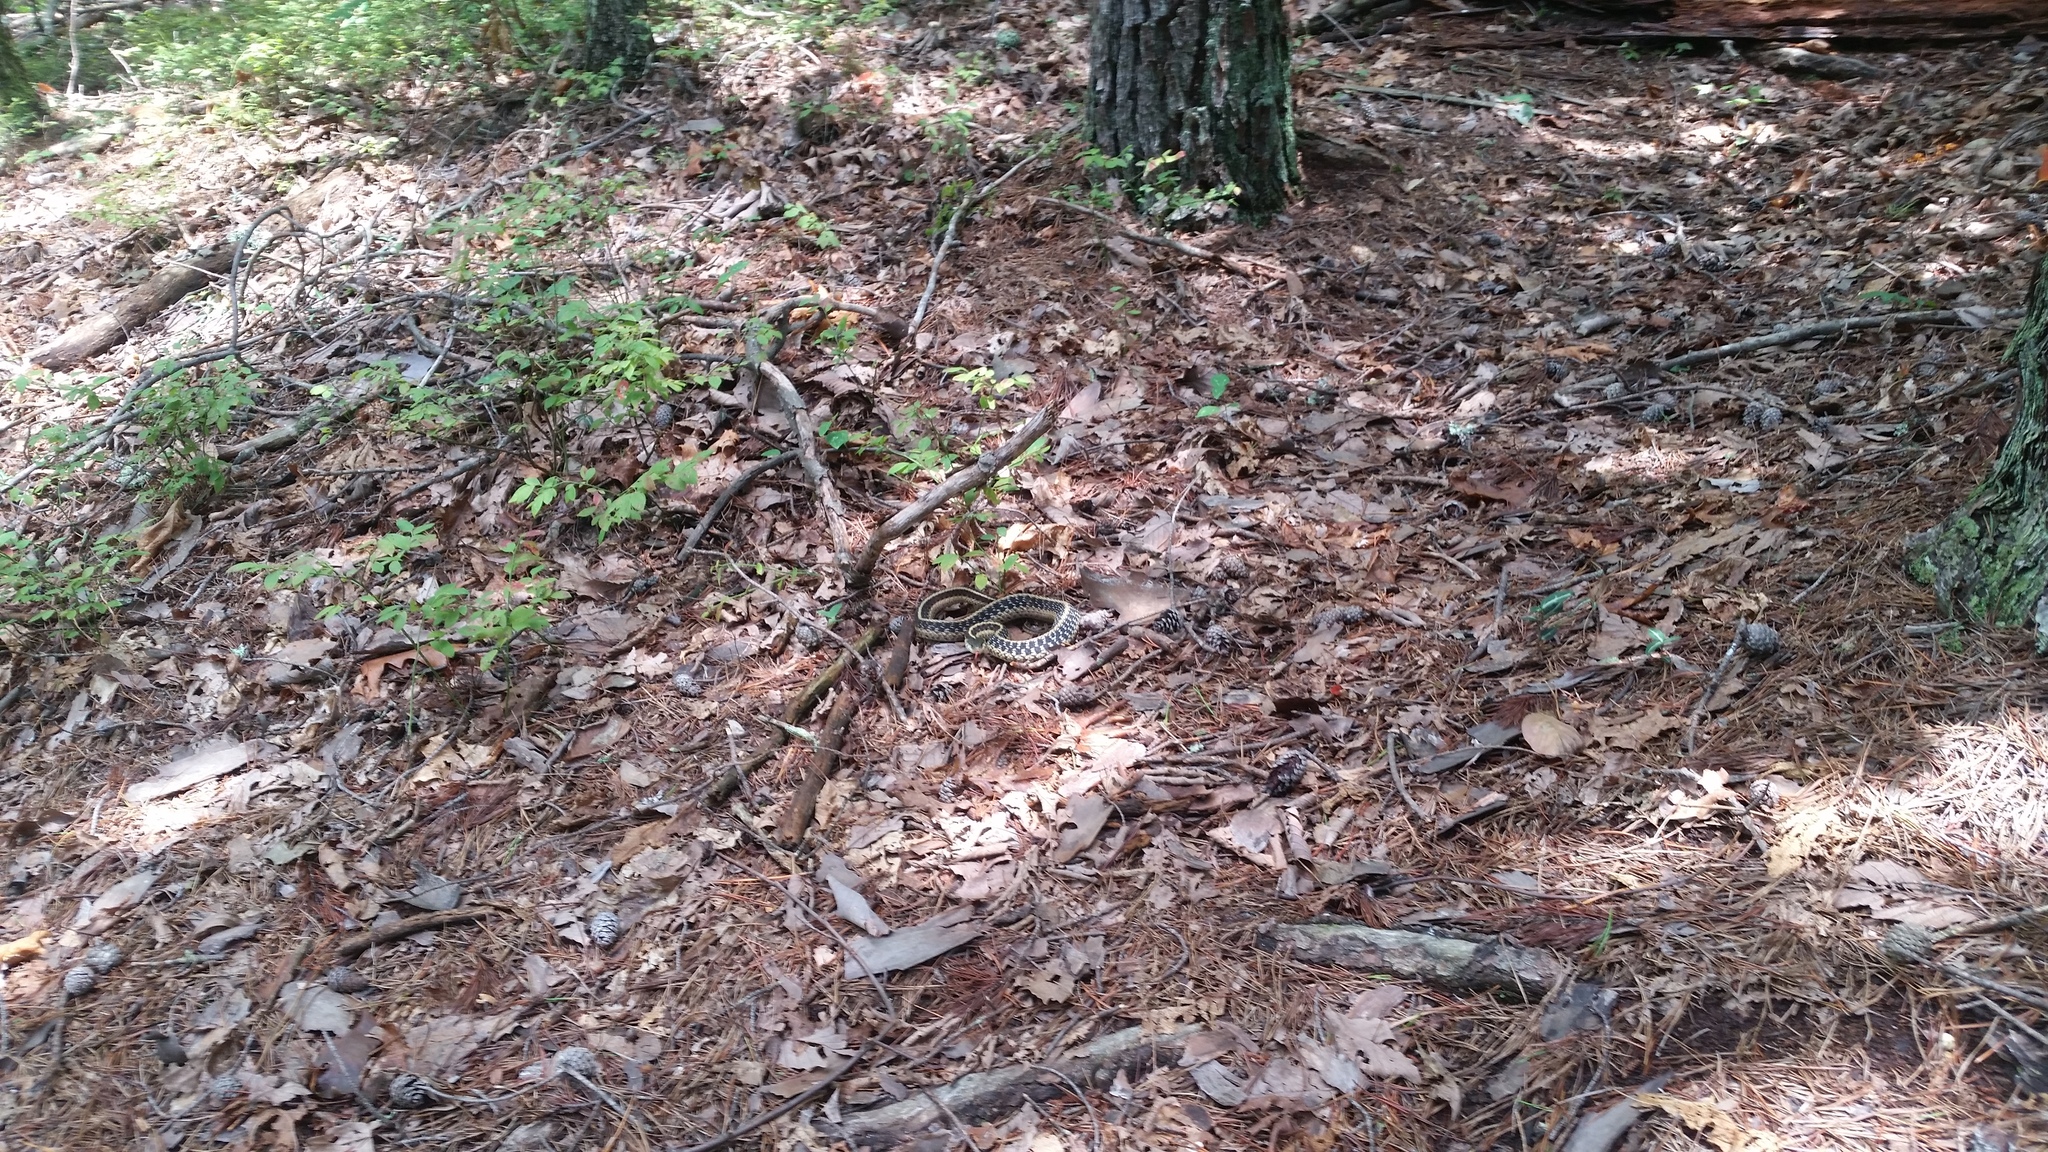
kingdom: Animalia
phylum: Chordata
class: Squamata
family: Colubridae
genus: Thamnophis
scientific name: Thamnophis sirtalis
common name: Common garter snake
